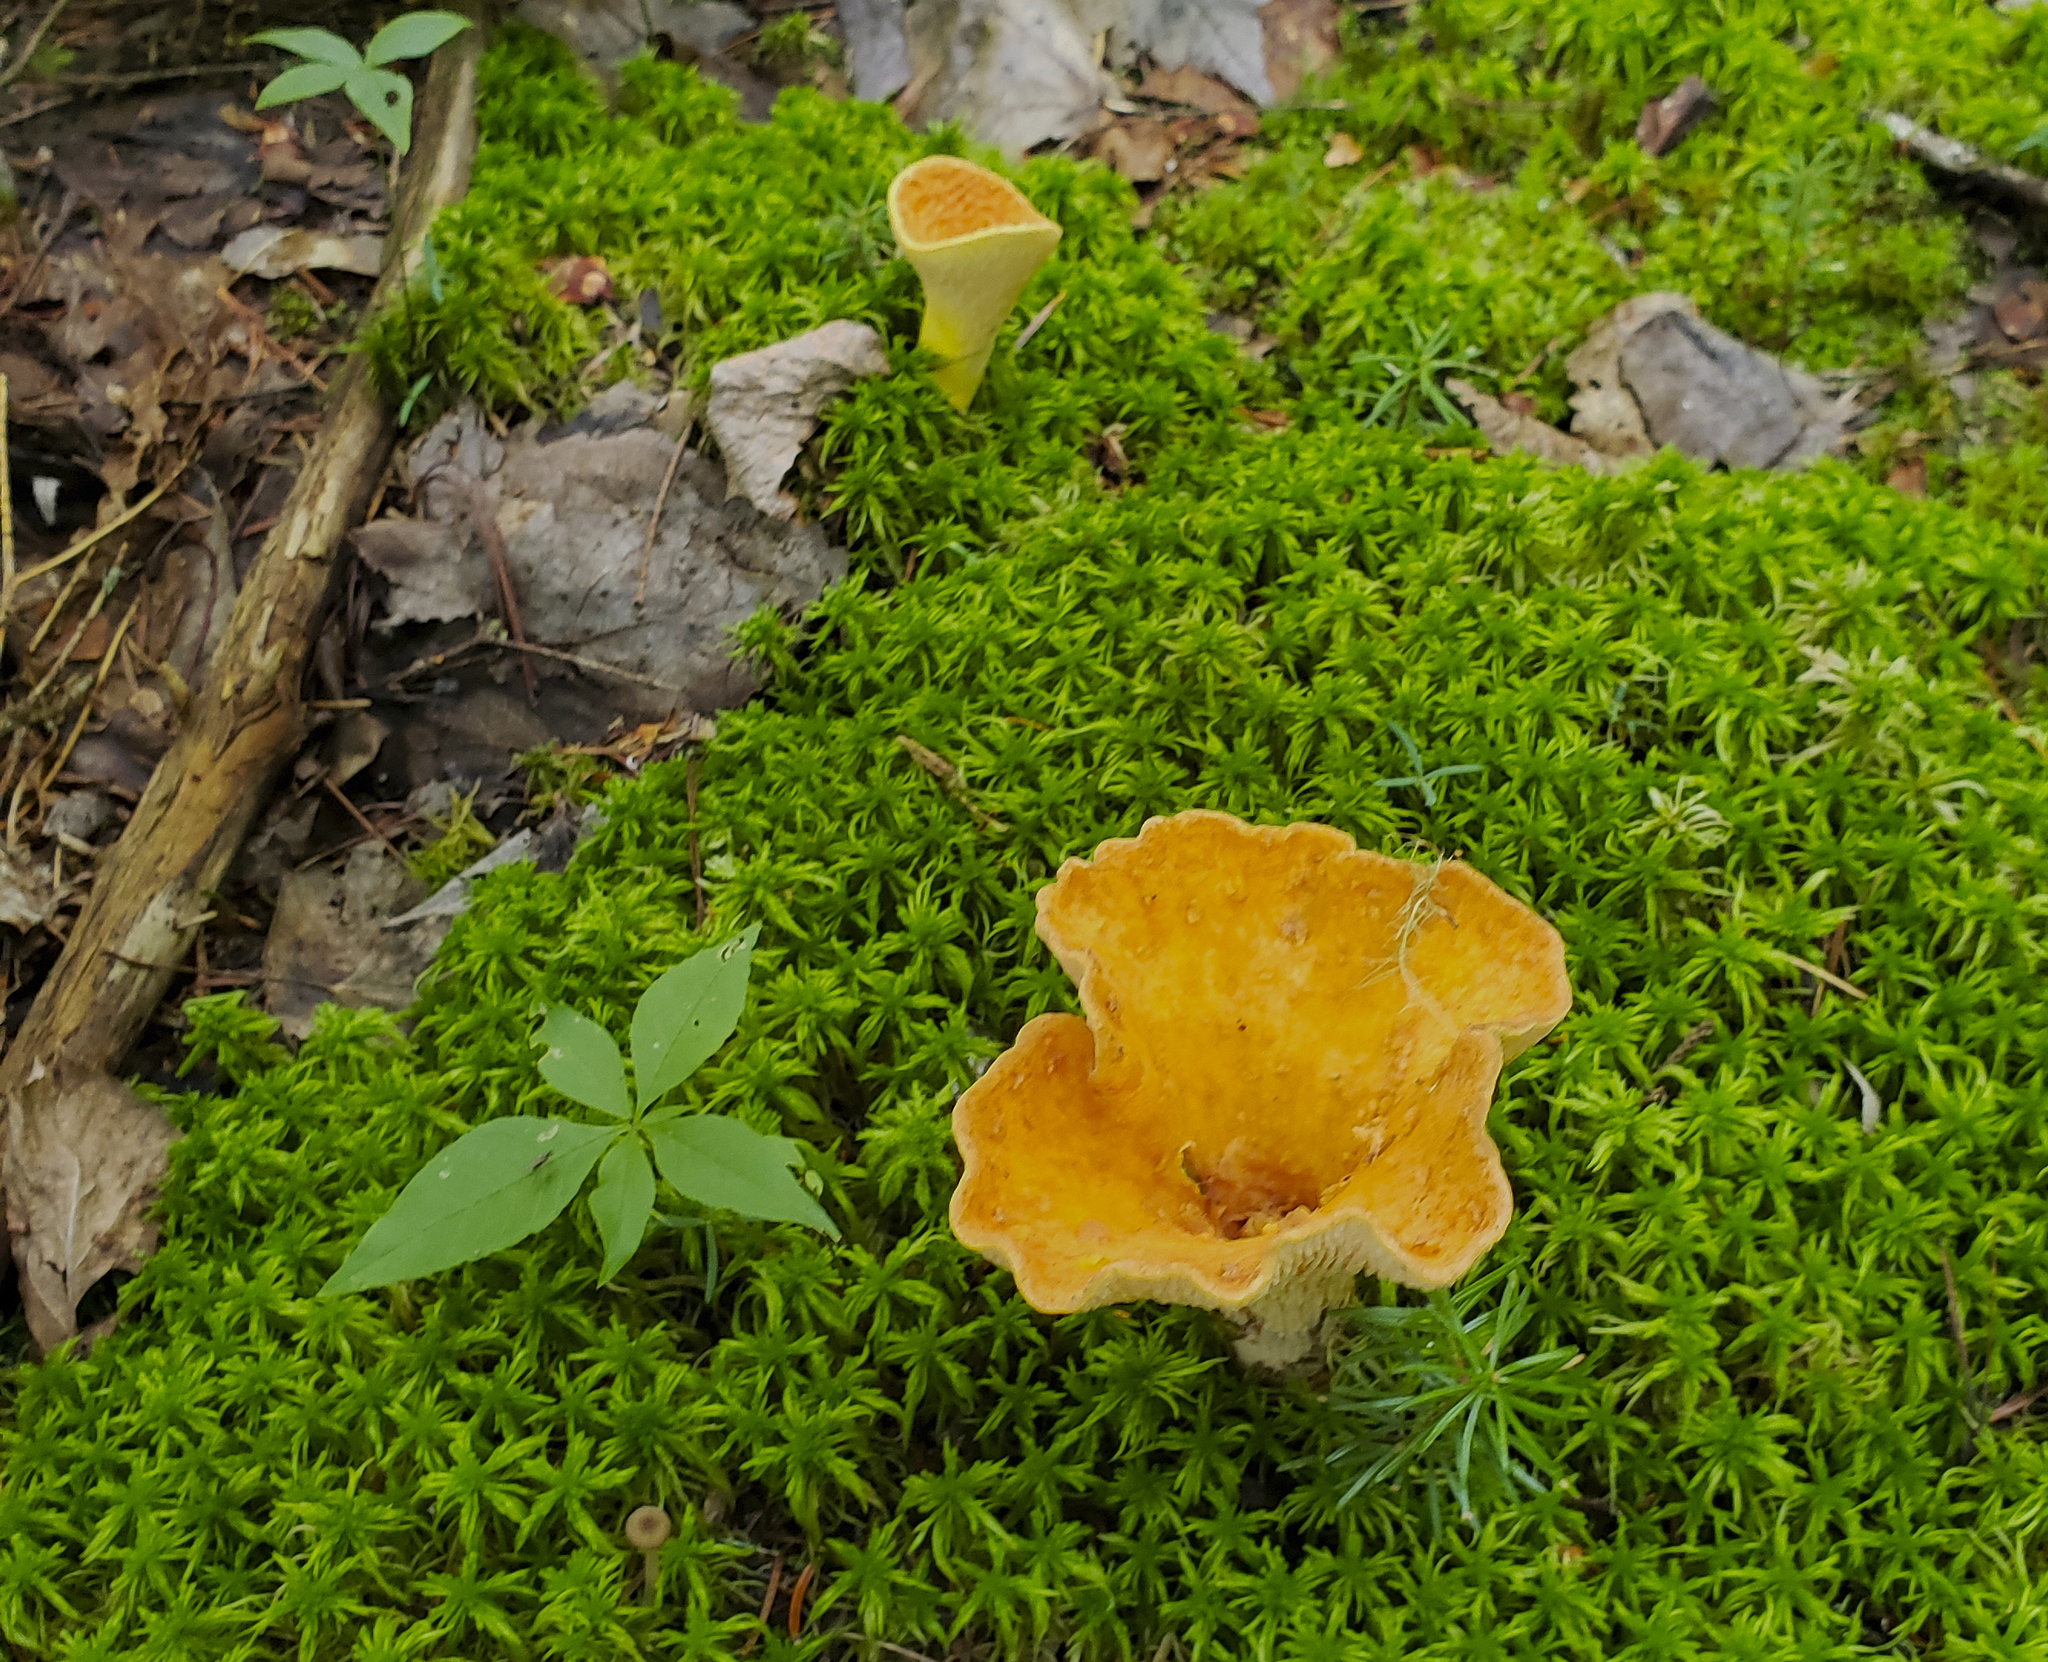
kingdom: Fungi
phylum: Basidiomycota
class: Agaricomycetes
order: Gomphales
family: Gomphaceae
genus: Turbinellus
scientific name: Turbinellus floccosus
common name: Scaly chanterelle
